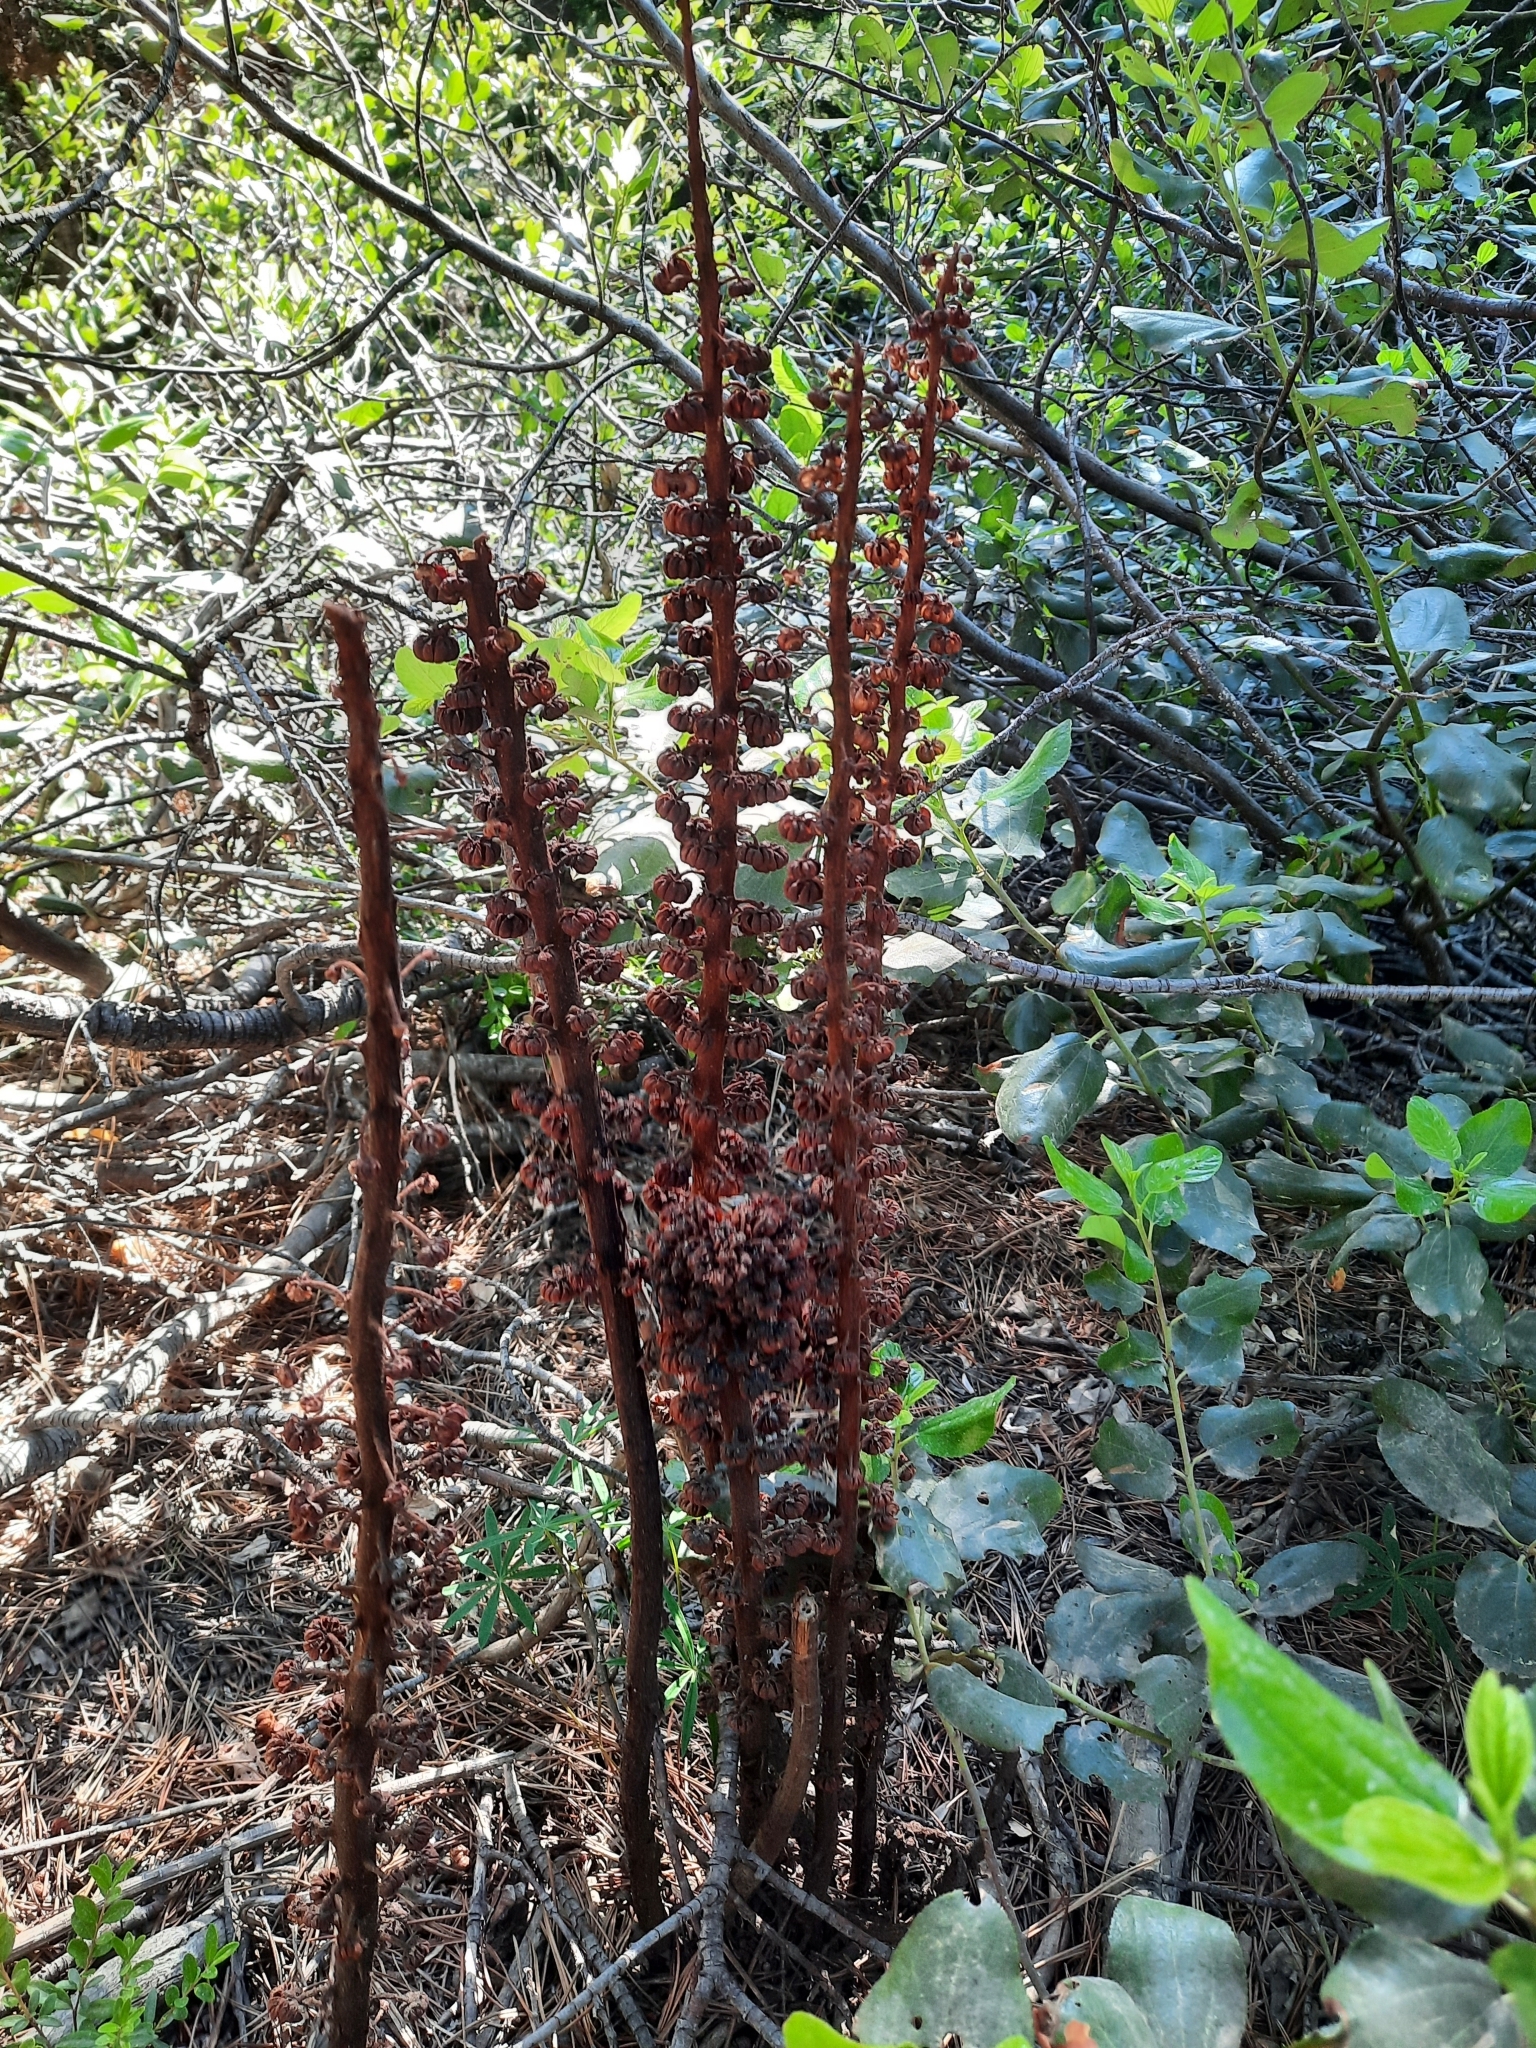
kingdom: Plantae
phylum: Tracheophyta
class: Magnoliopsida
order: Ericales
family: Ericaceae
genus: Pterospora
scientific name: Pterospora andromedea
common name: Giant bird's-nest
